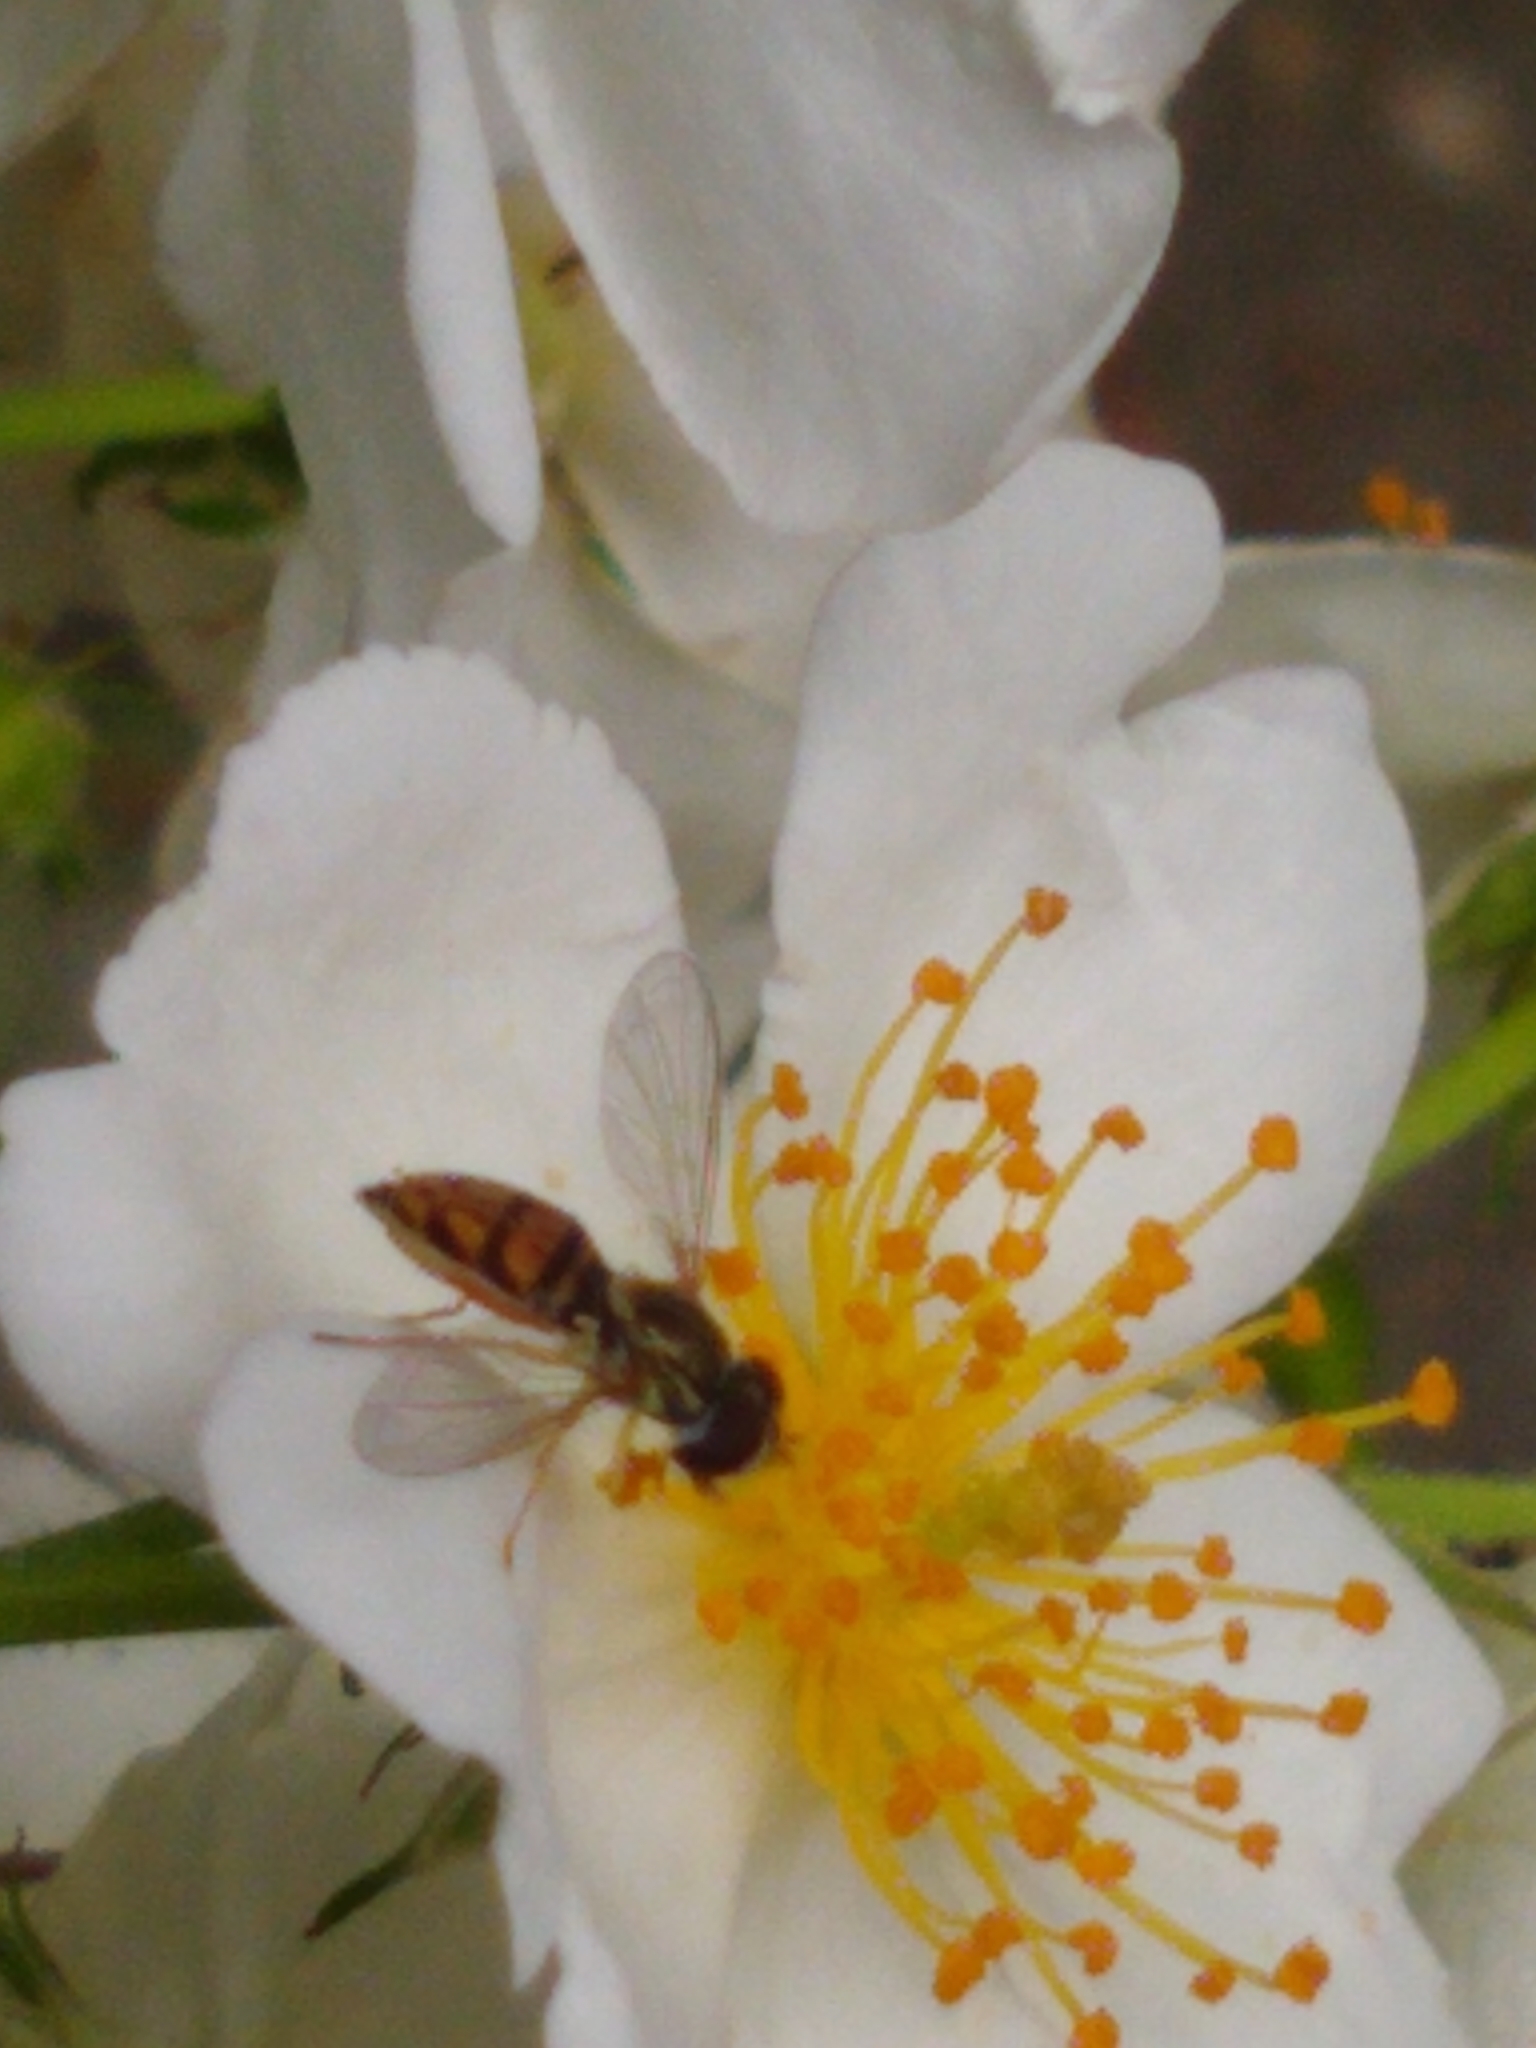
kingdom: Animalia
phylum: Arthropoda
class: Insecta
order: Diptera
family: Syrphidae
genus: Toxomerus
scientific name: Toxomerus marginatus
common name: Syrphid fly
